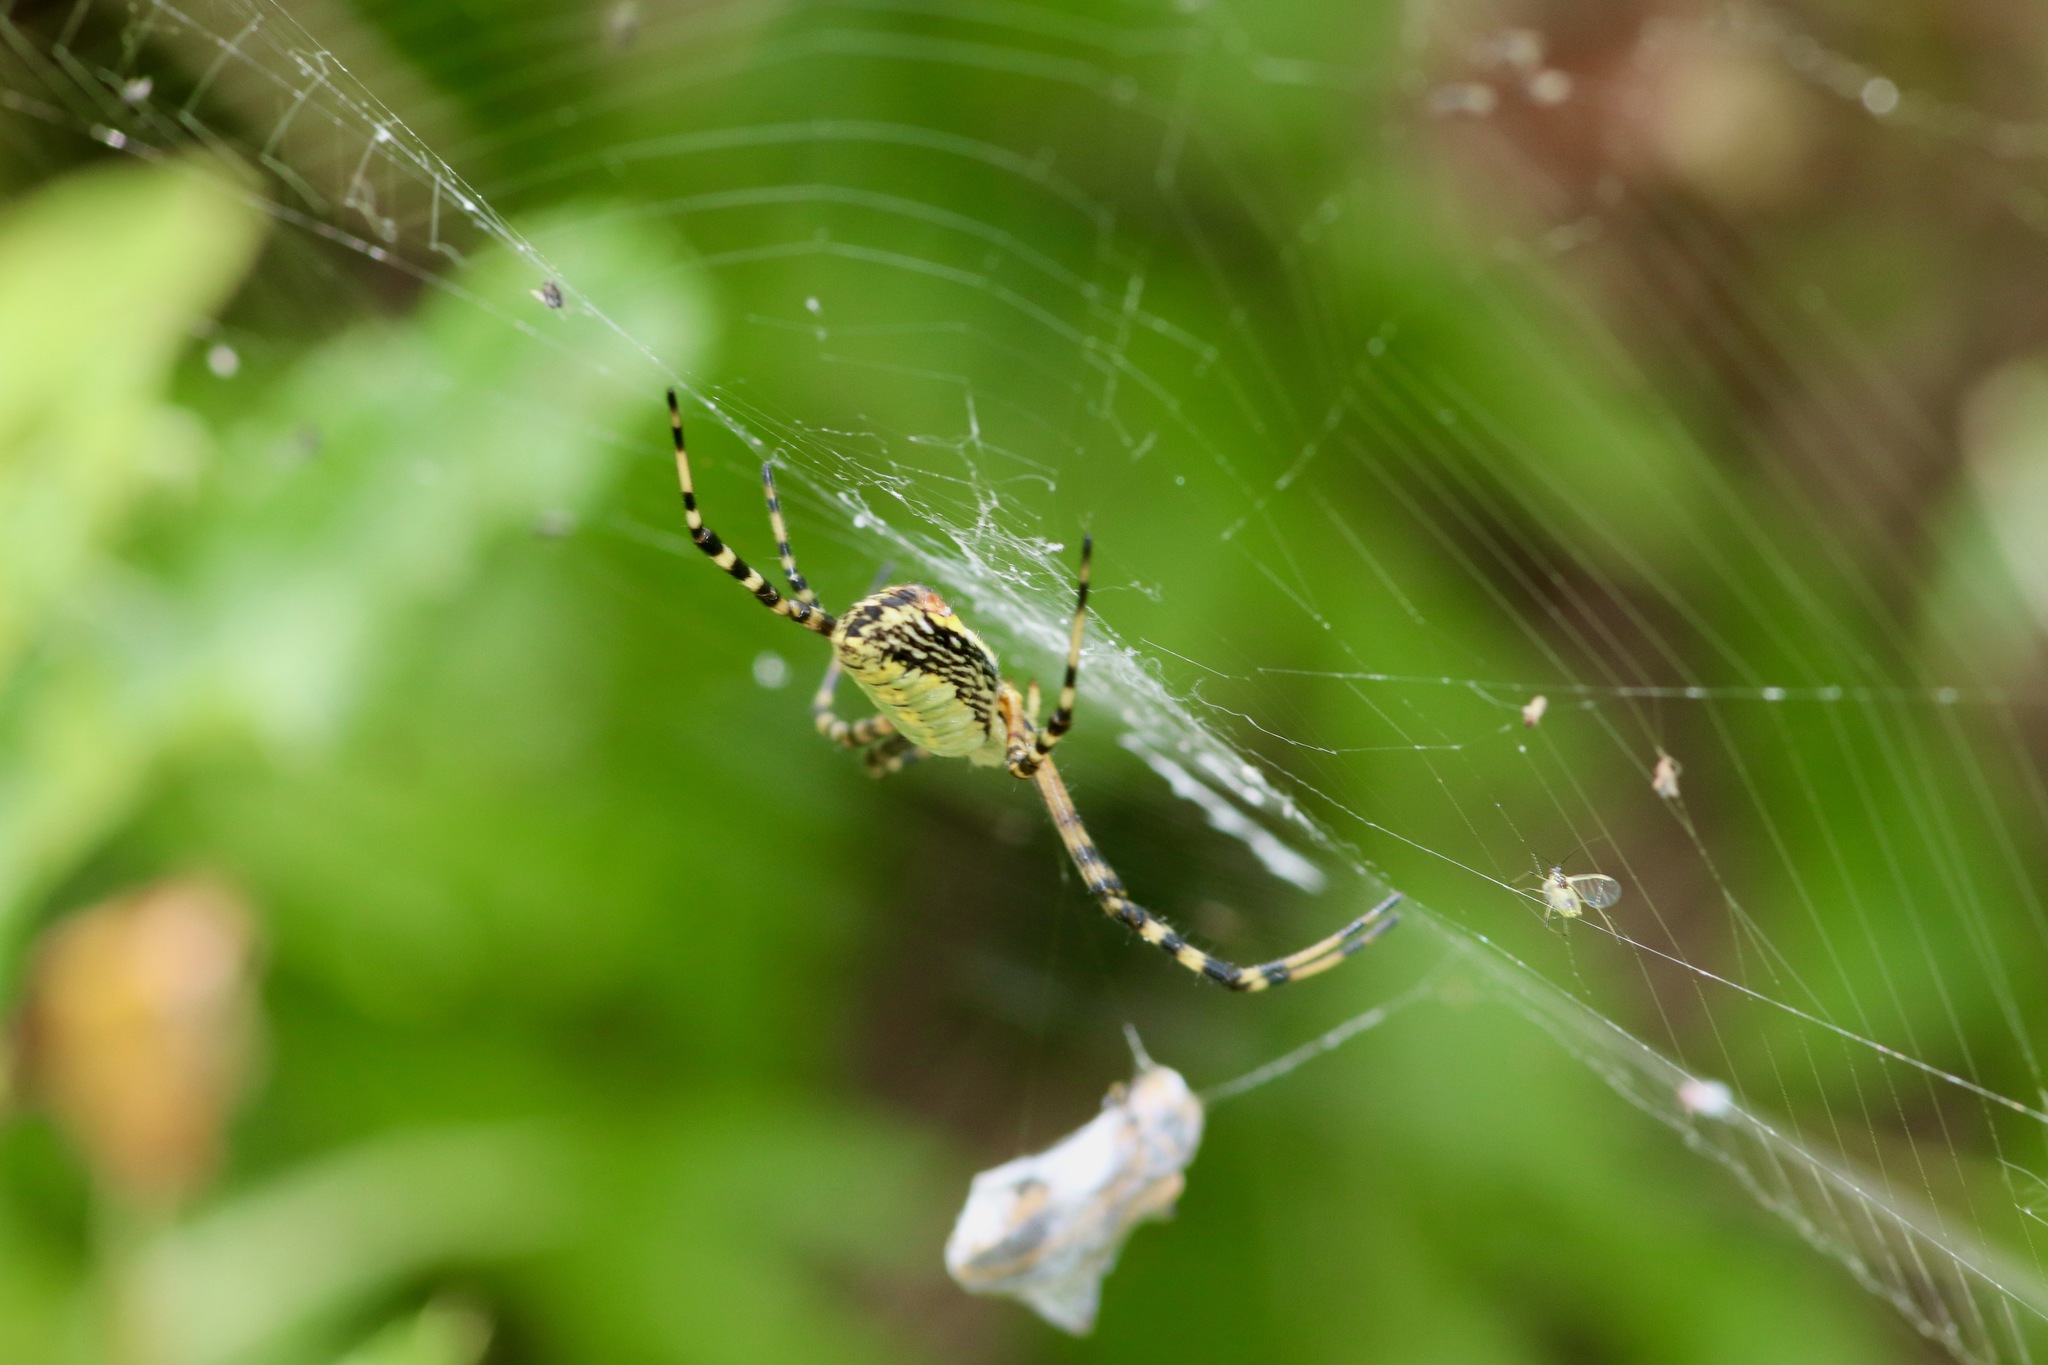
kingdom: Animalia
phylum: Arthropoda
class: Arachnida
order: Araneae
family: Araneidae
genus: Argiope
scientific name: Argiope trifasciata
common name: Banded garden spider
